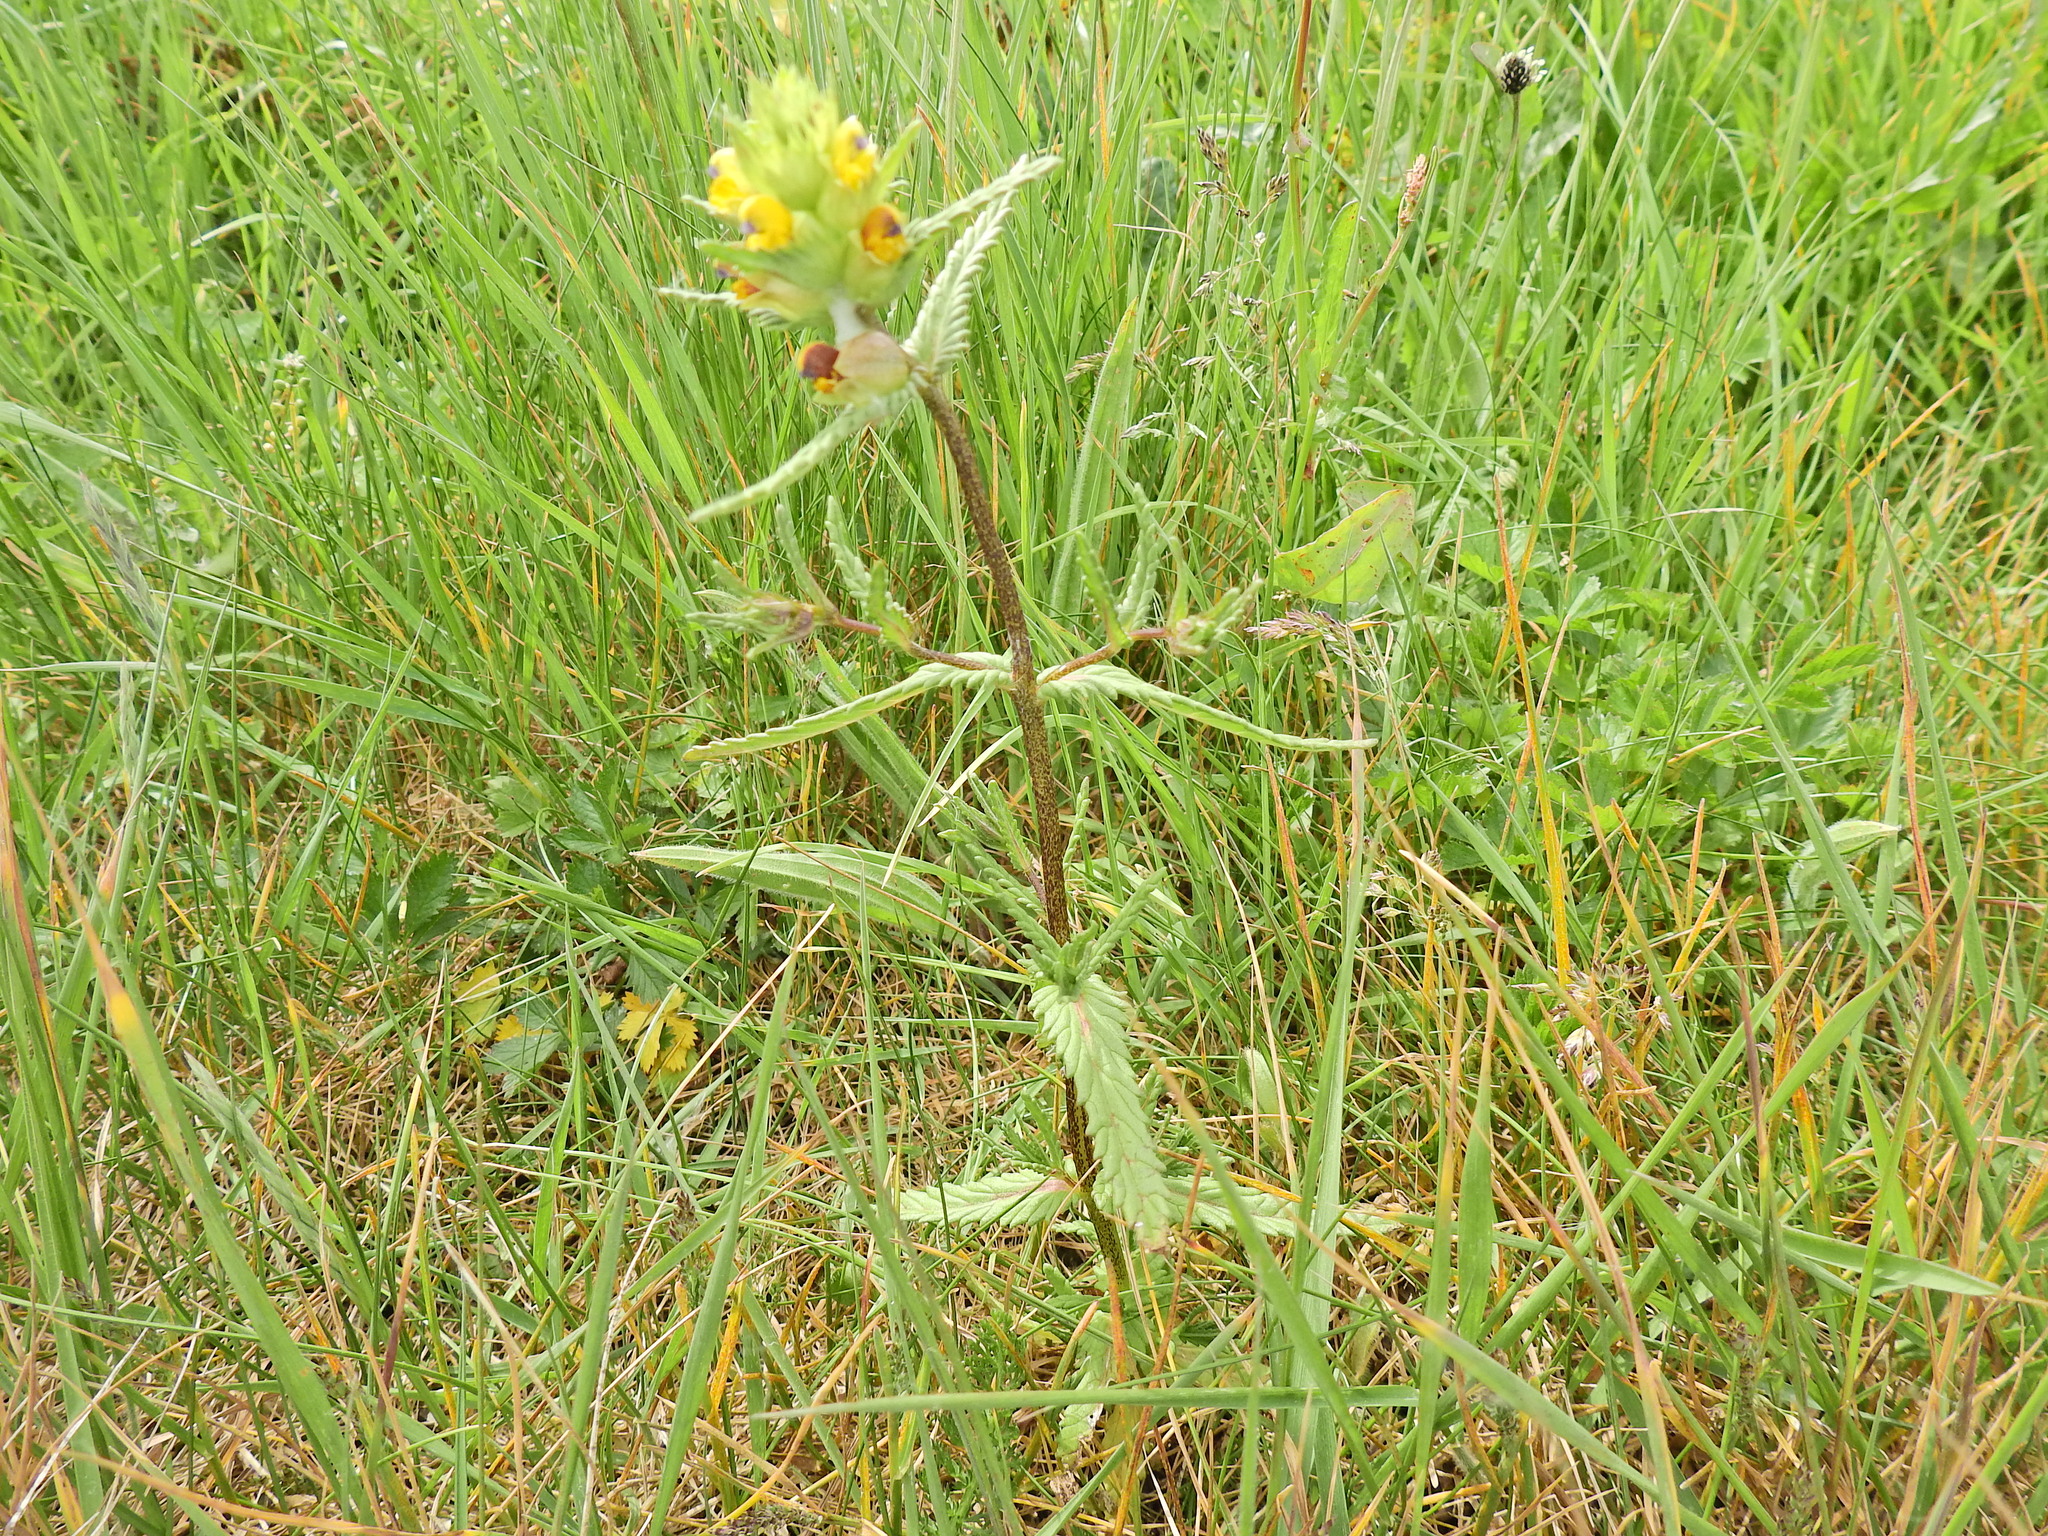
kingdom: Plantae
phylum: Tracheophyta
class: Magnoliopsida
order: Lamiales
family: Orobanchaceae
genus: Rhinanthus
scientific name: Rhinanthus minor
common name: Yellow-rattle
